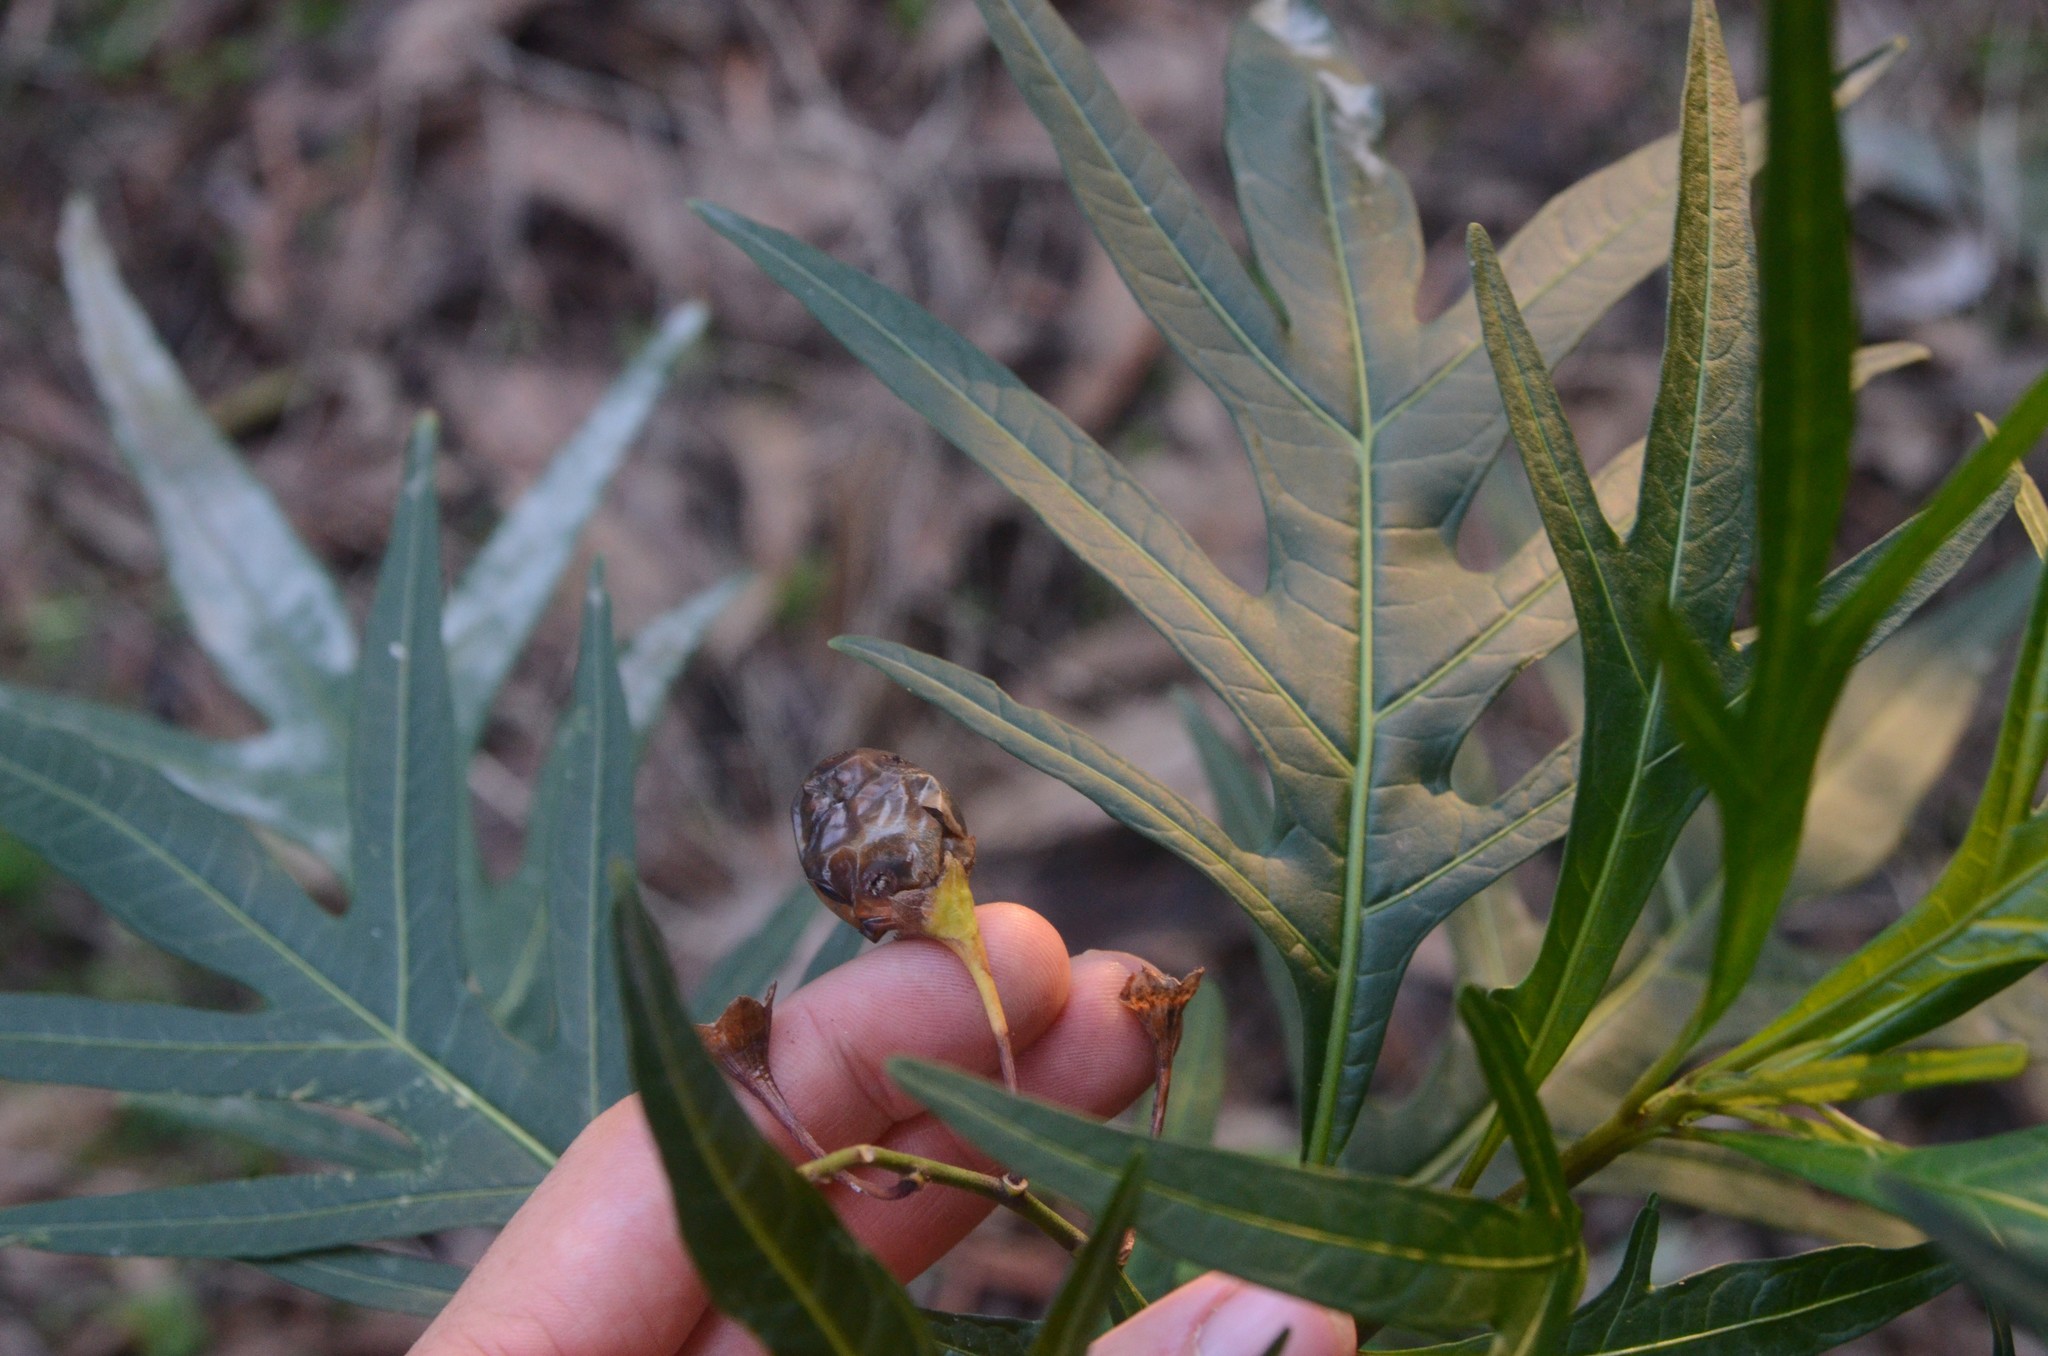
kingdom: Plantae
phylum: Tracheophyta
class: Magnoliopsida
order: Solanales
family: Solanaceae
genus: Solanum
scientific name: Solanum laciniatum
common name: Kangaroo-apple
